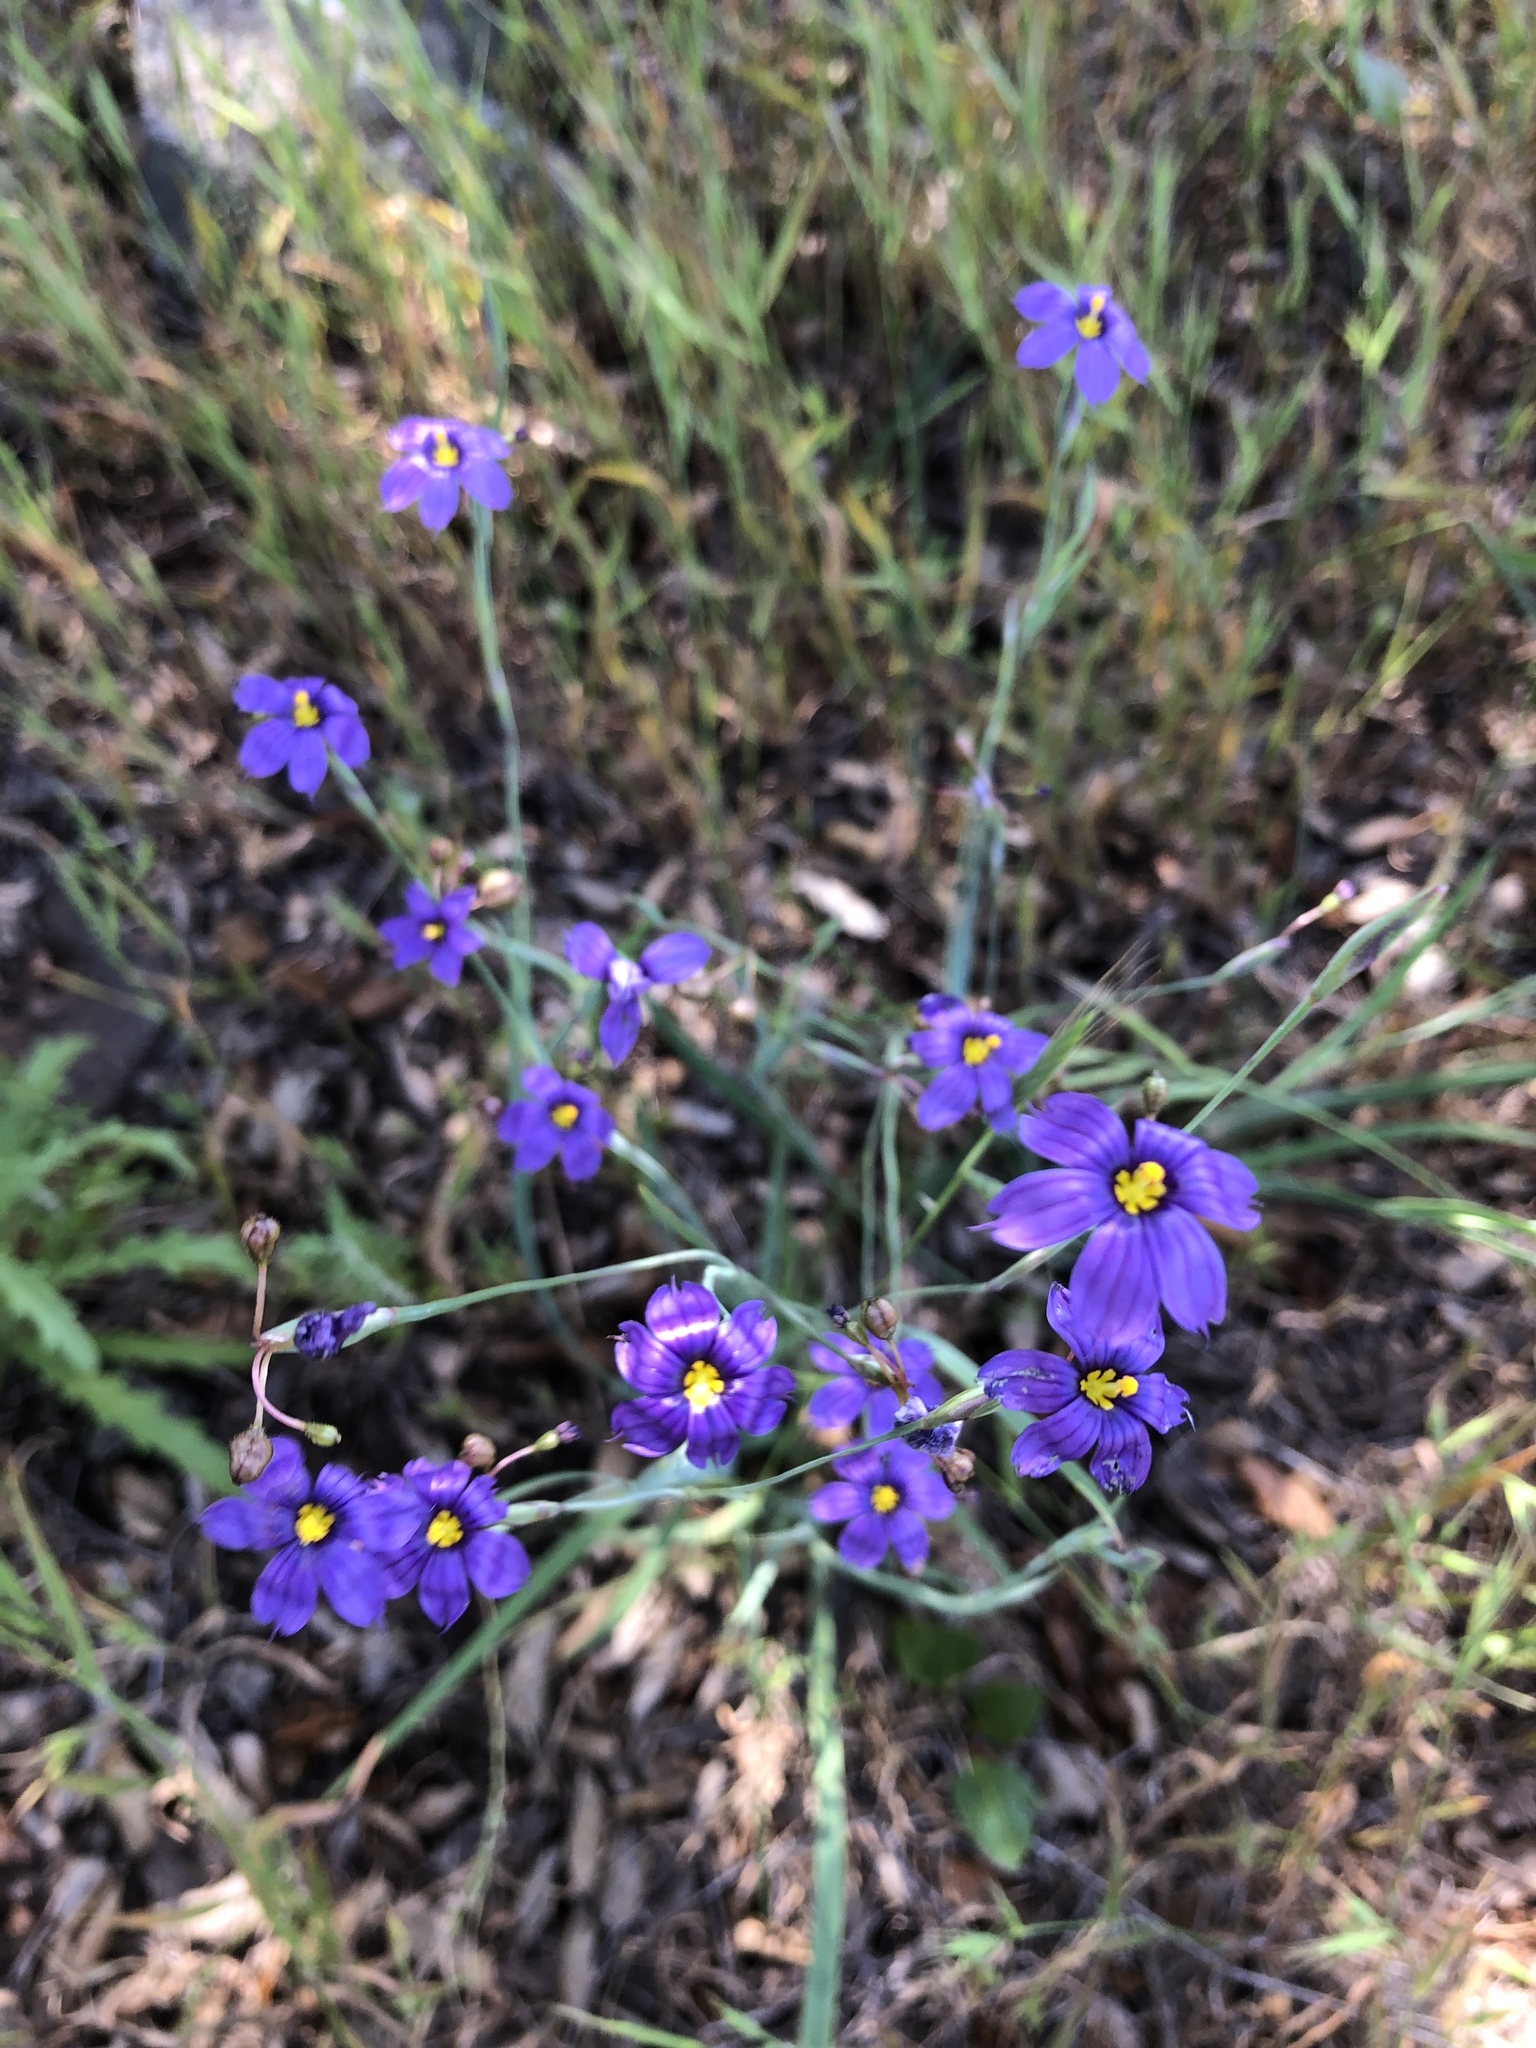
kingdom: Plantae
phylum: Tracheophyta
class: Liliopsida
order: Asparagales
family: Iridaceae
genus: Sisyrinchium
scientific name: Sisyrinchium bellum
